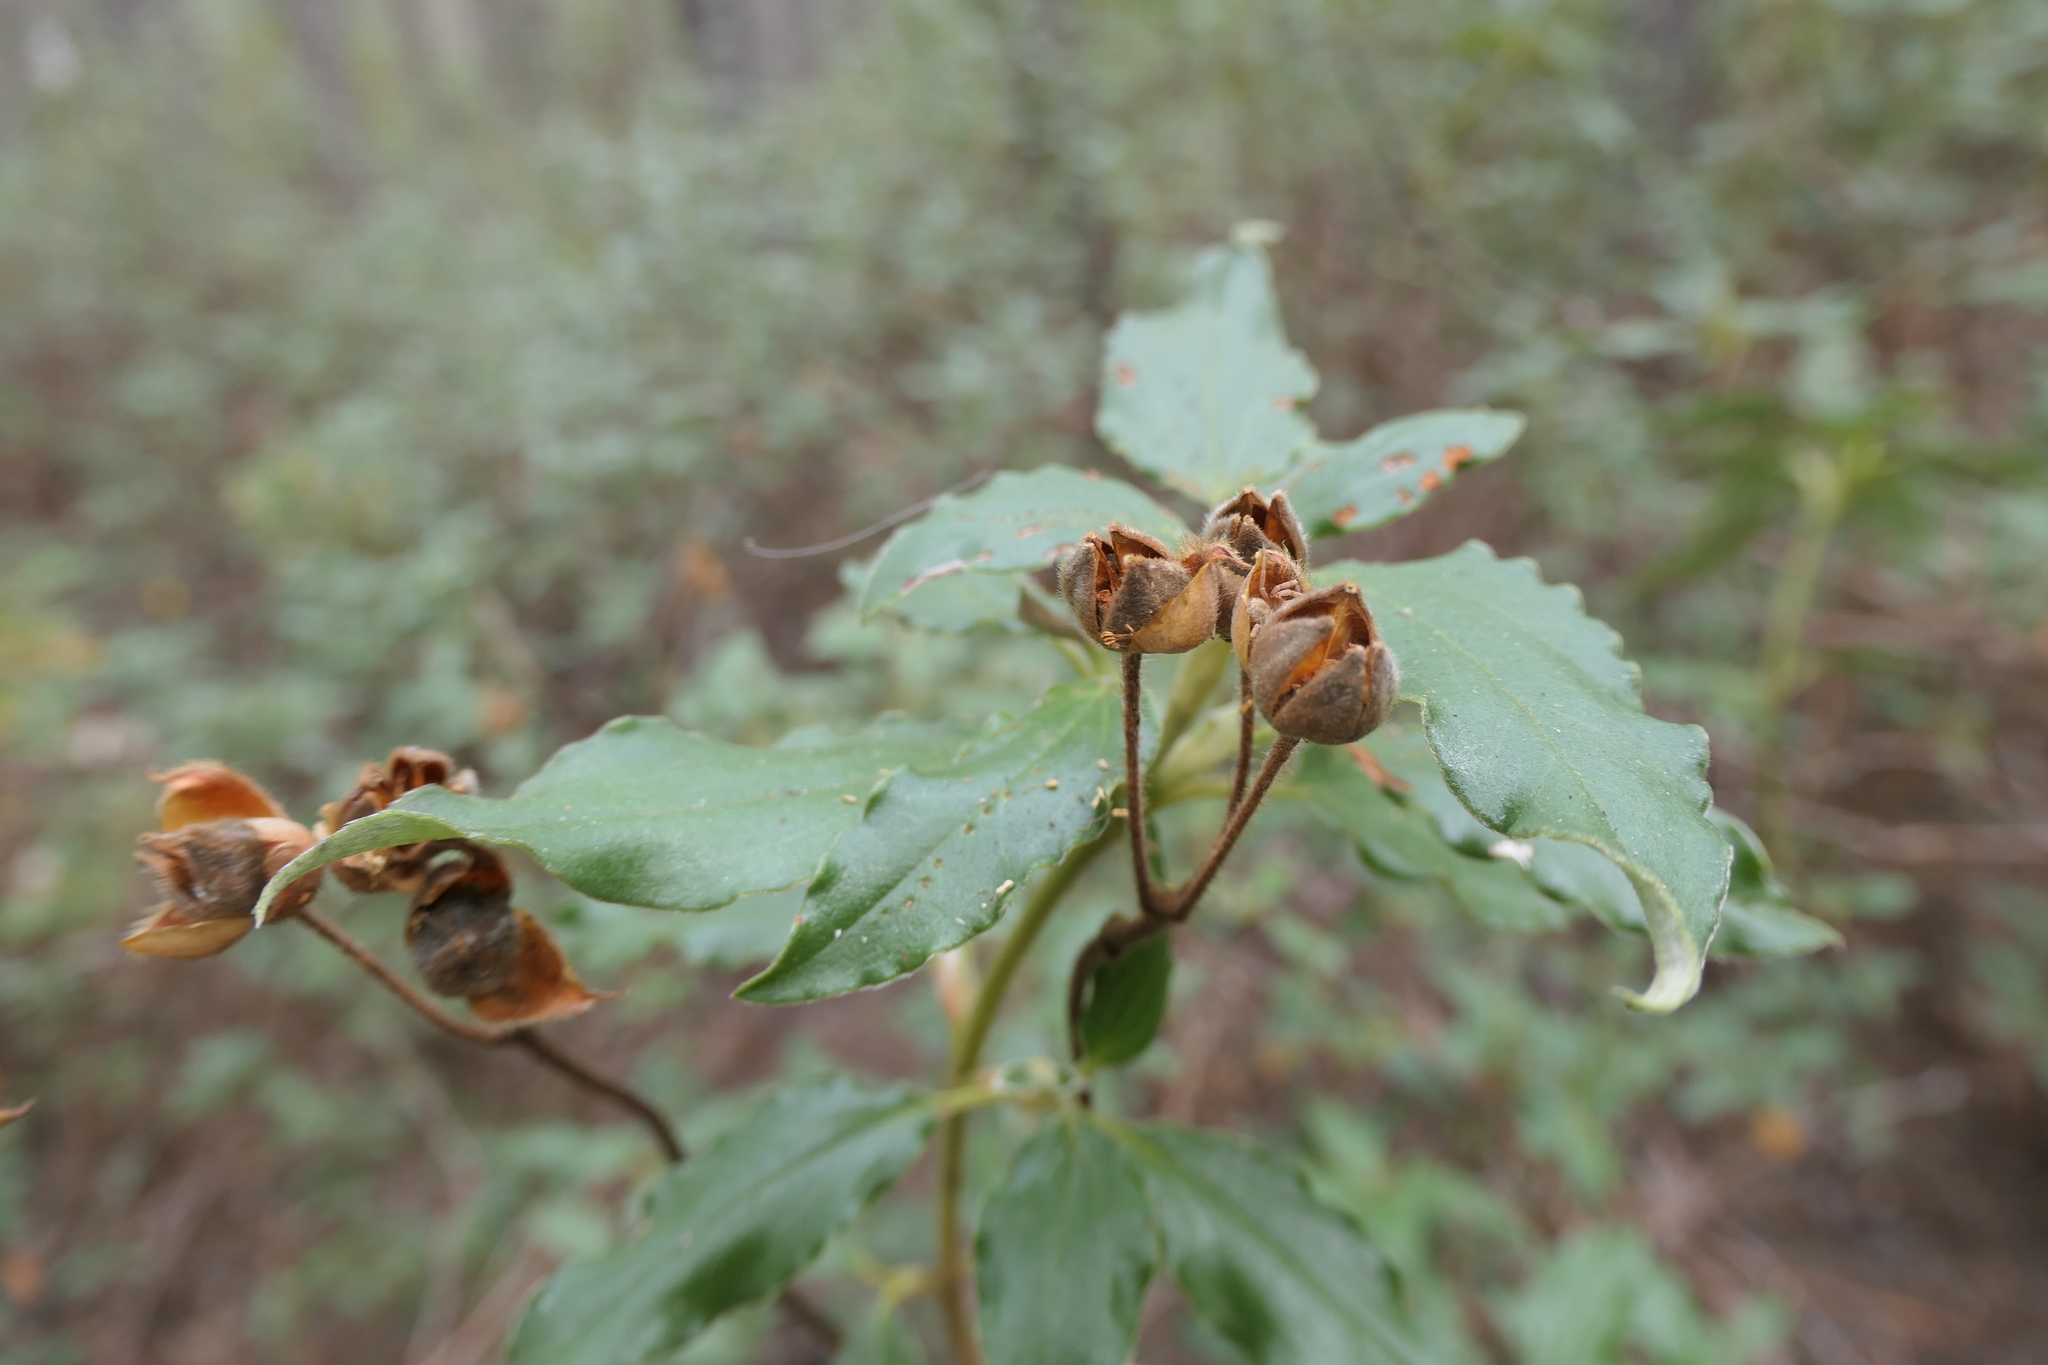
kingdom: Plantae
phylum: Tracheophyta
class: Magnoliopsida
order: Malvales
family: Cistaceae
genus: Cistus
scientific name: Cistus laurifolius
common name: Laurel-leaved cistus
